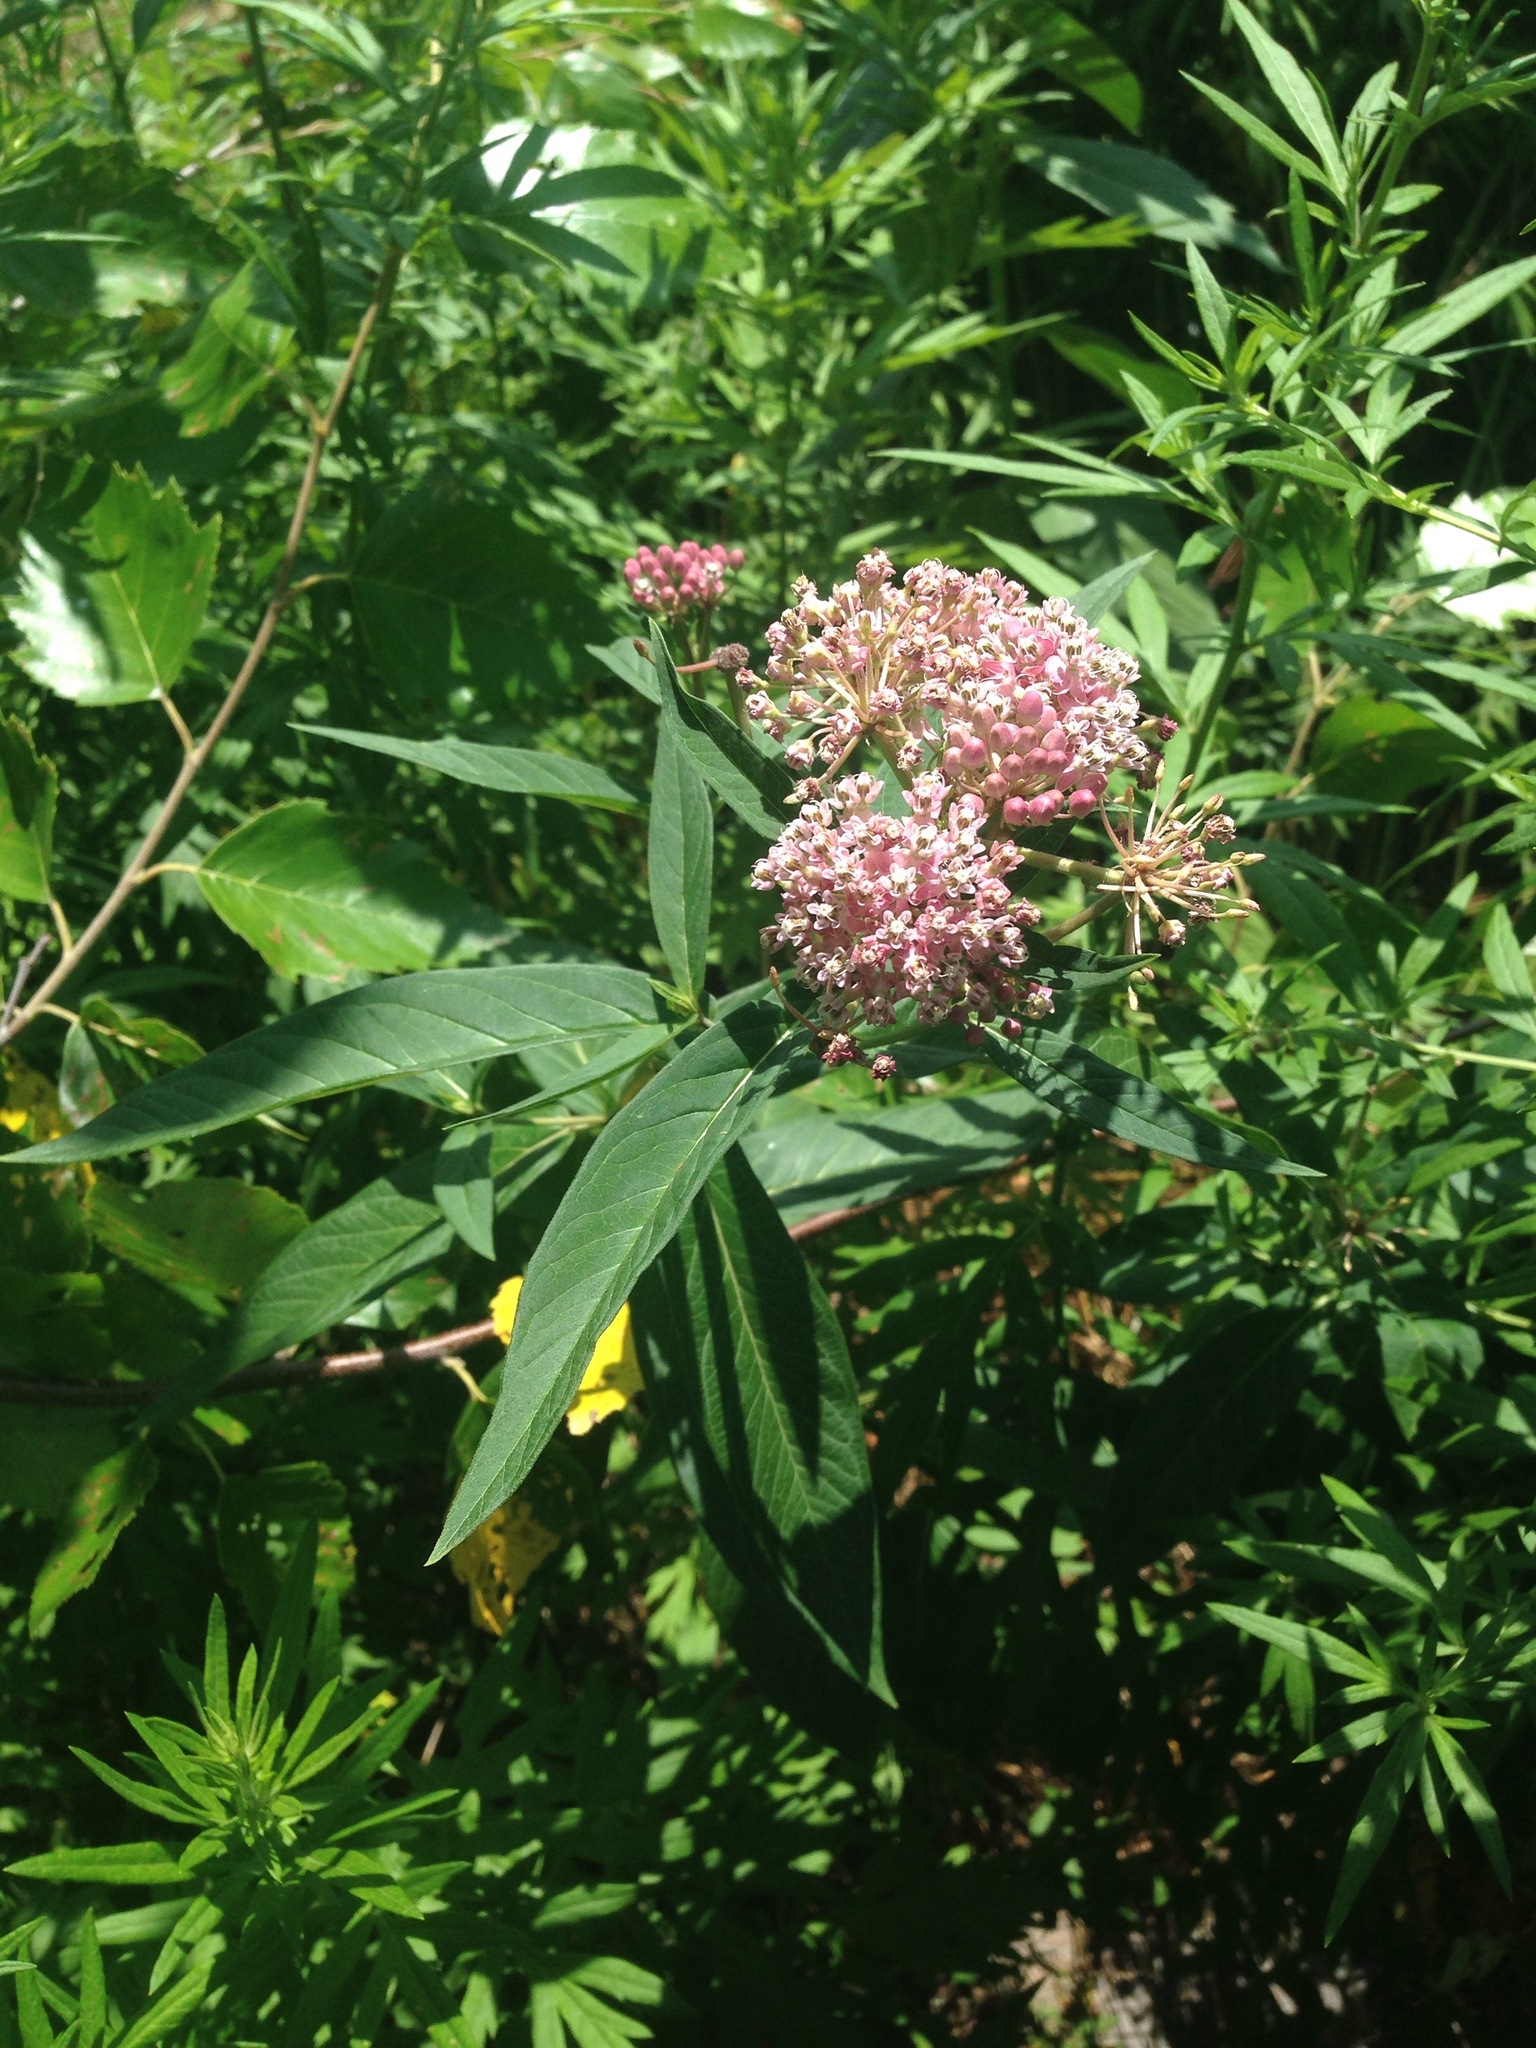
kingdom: Plantae
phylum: Tracheophyta
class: Magnoliopsida
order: Gentianales
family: Apocynaceae
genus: Asclepias
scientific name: Asclepias incarnata
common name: Swamp milkweed
